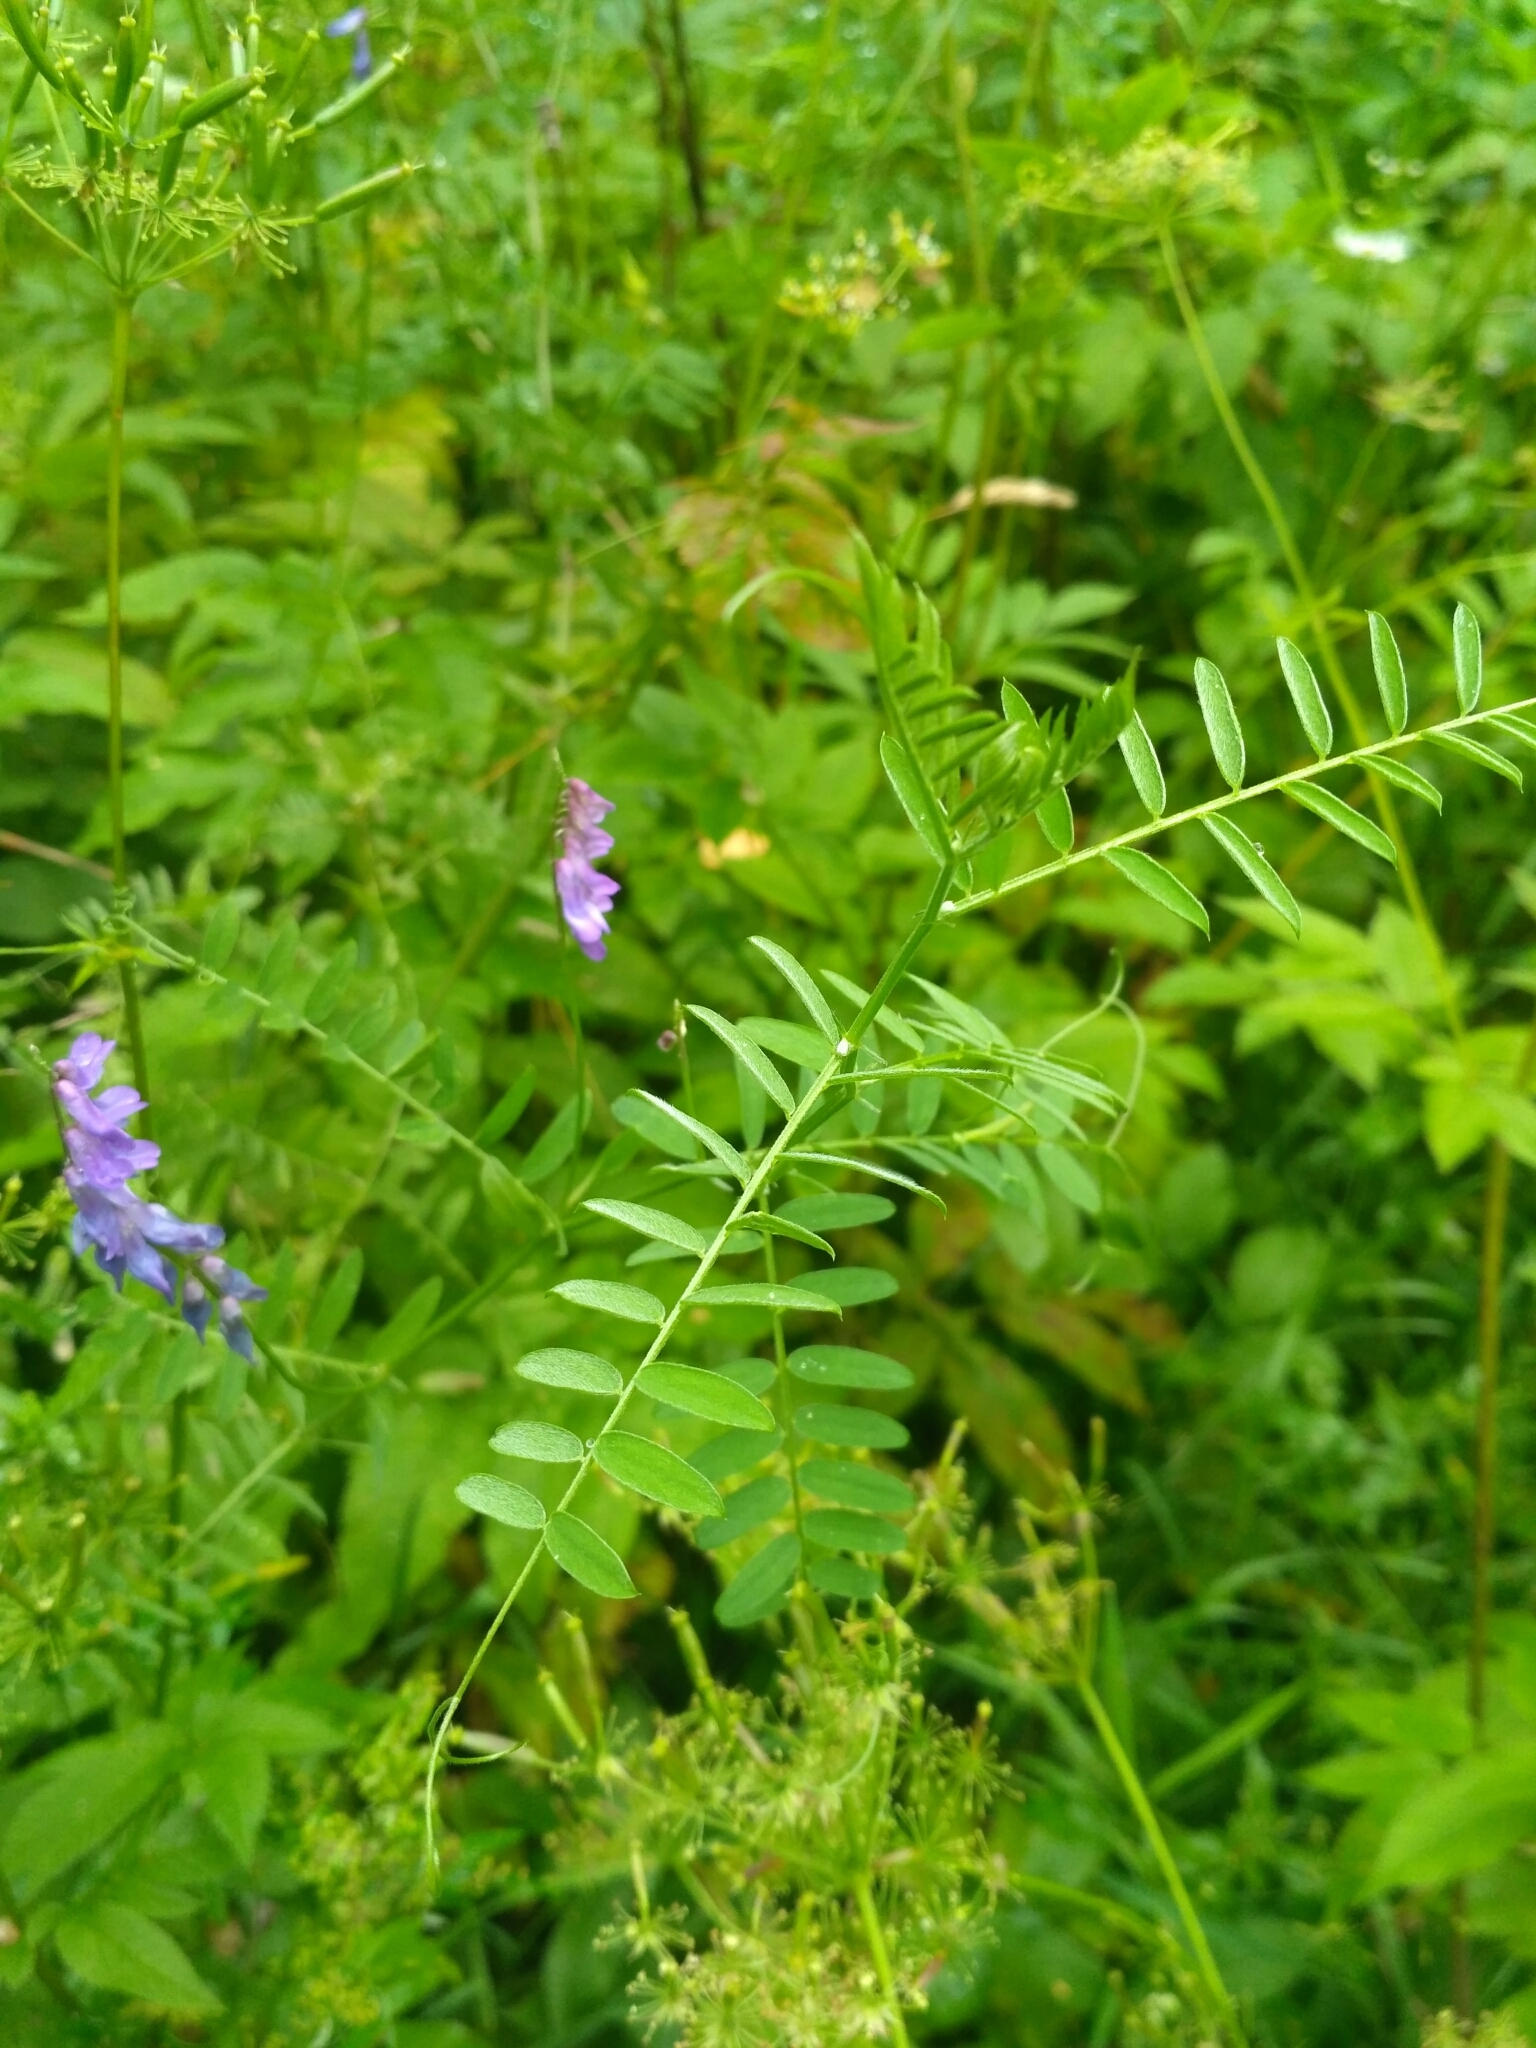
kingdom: Plantae
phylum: Tracheophyta
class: Magnoliopsida
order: Fabales
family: Fabaceae
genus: Vicia
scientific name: Vicia cracca
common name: Bird vetch
